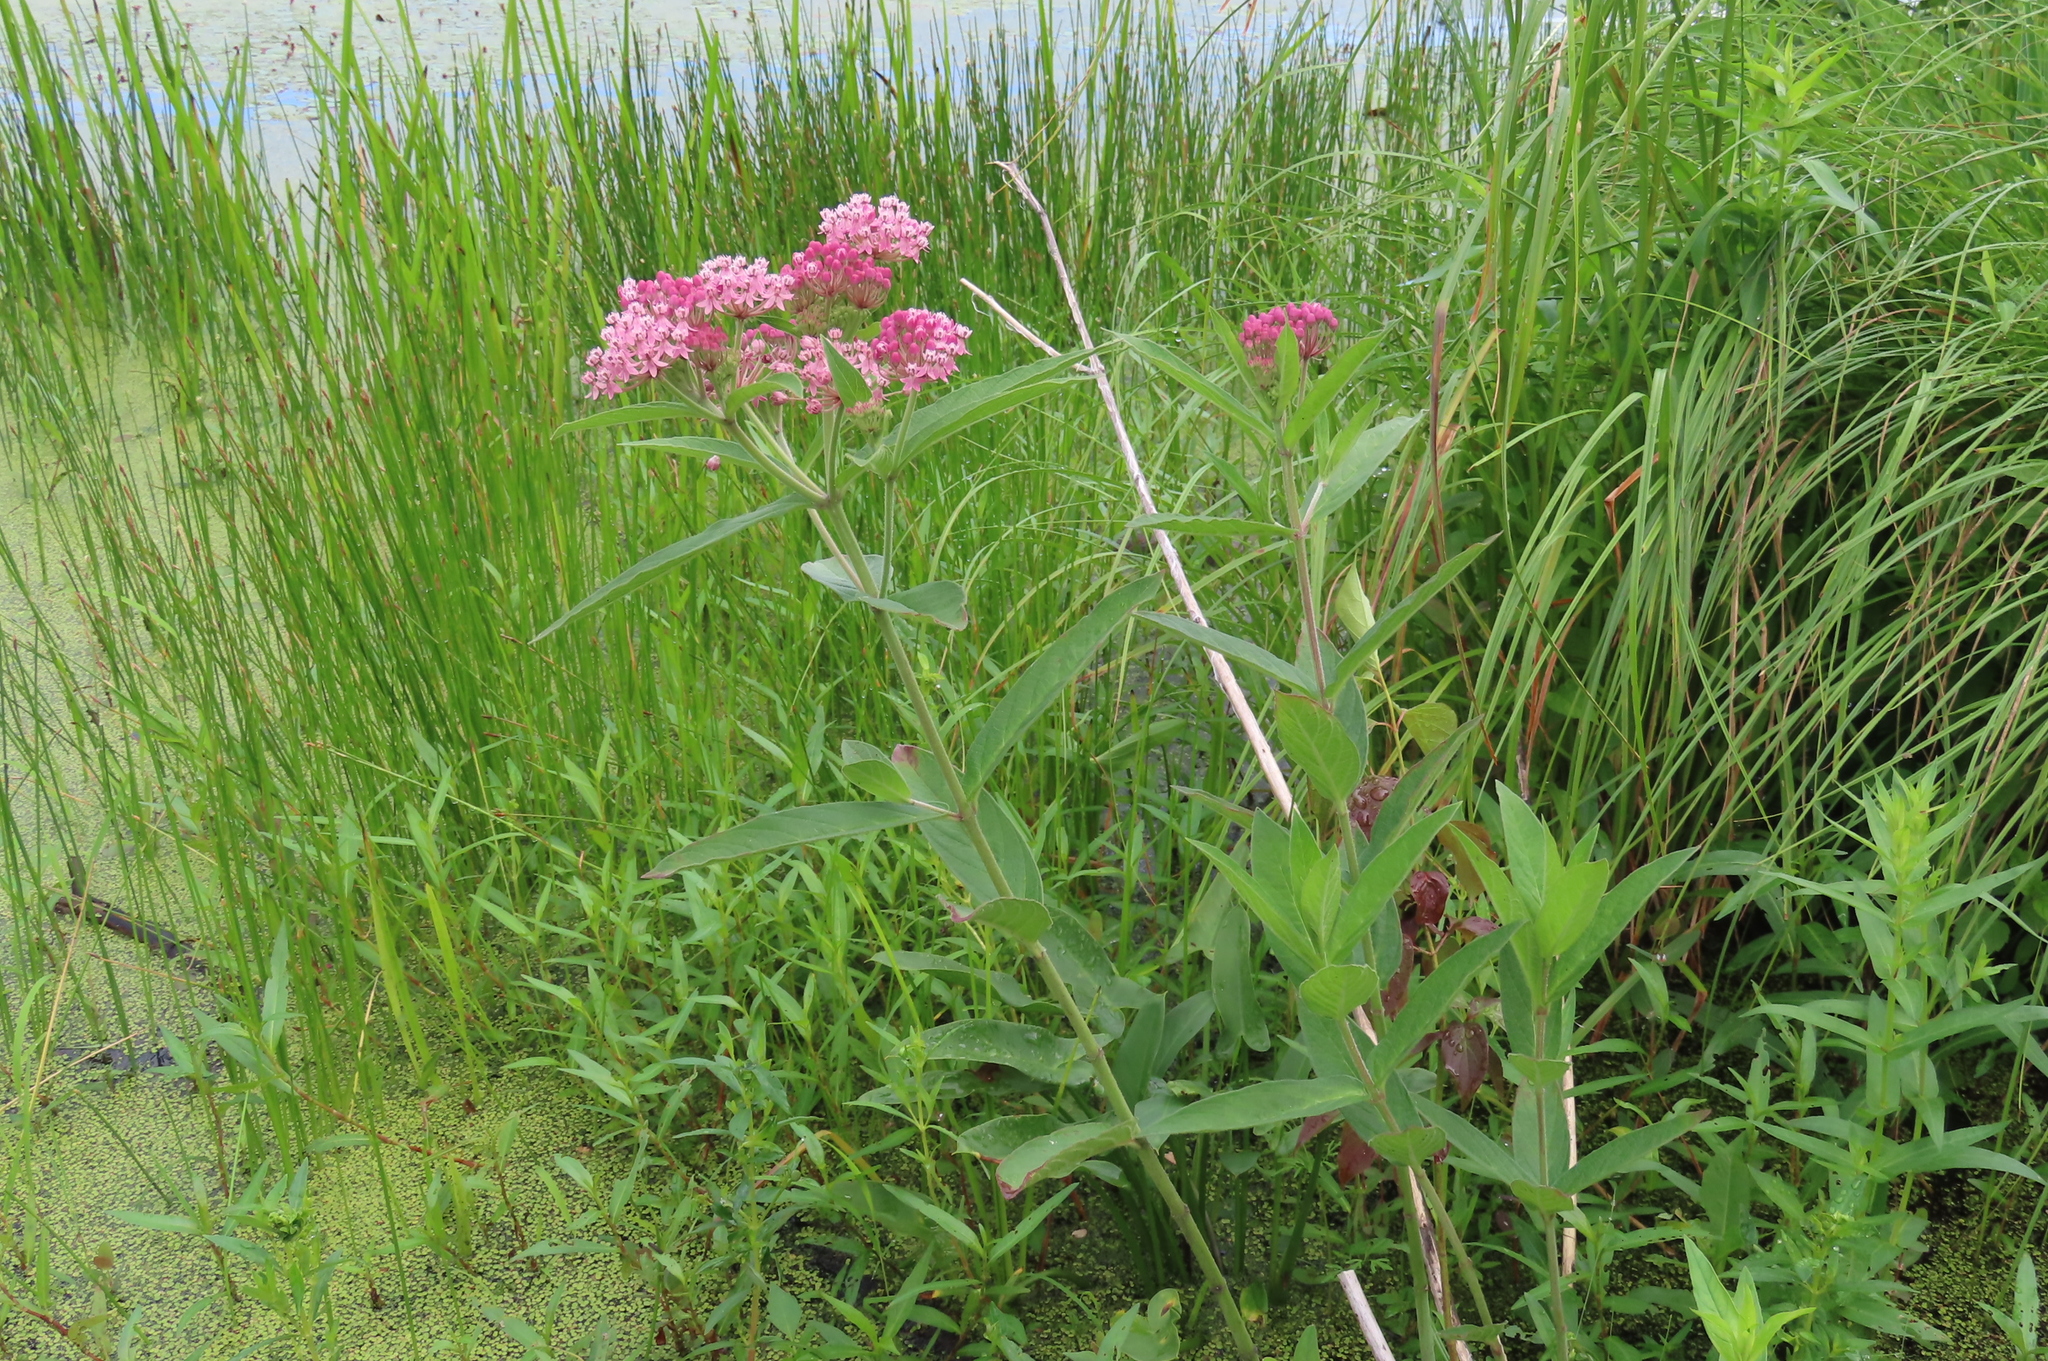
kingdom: Plantae
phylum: Tracheophyta
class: Magnoliopsida
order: Gentianales
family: Apocynaceae
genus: Asclepias
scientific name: Asclepias incarnata
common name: Swamp milkweed
